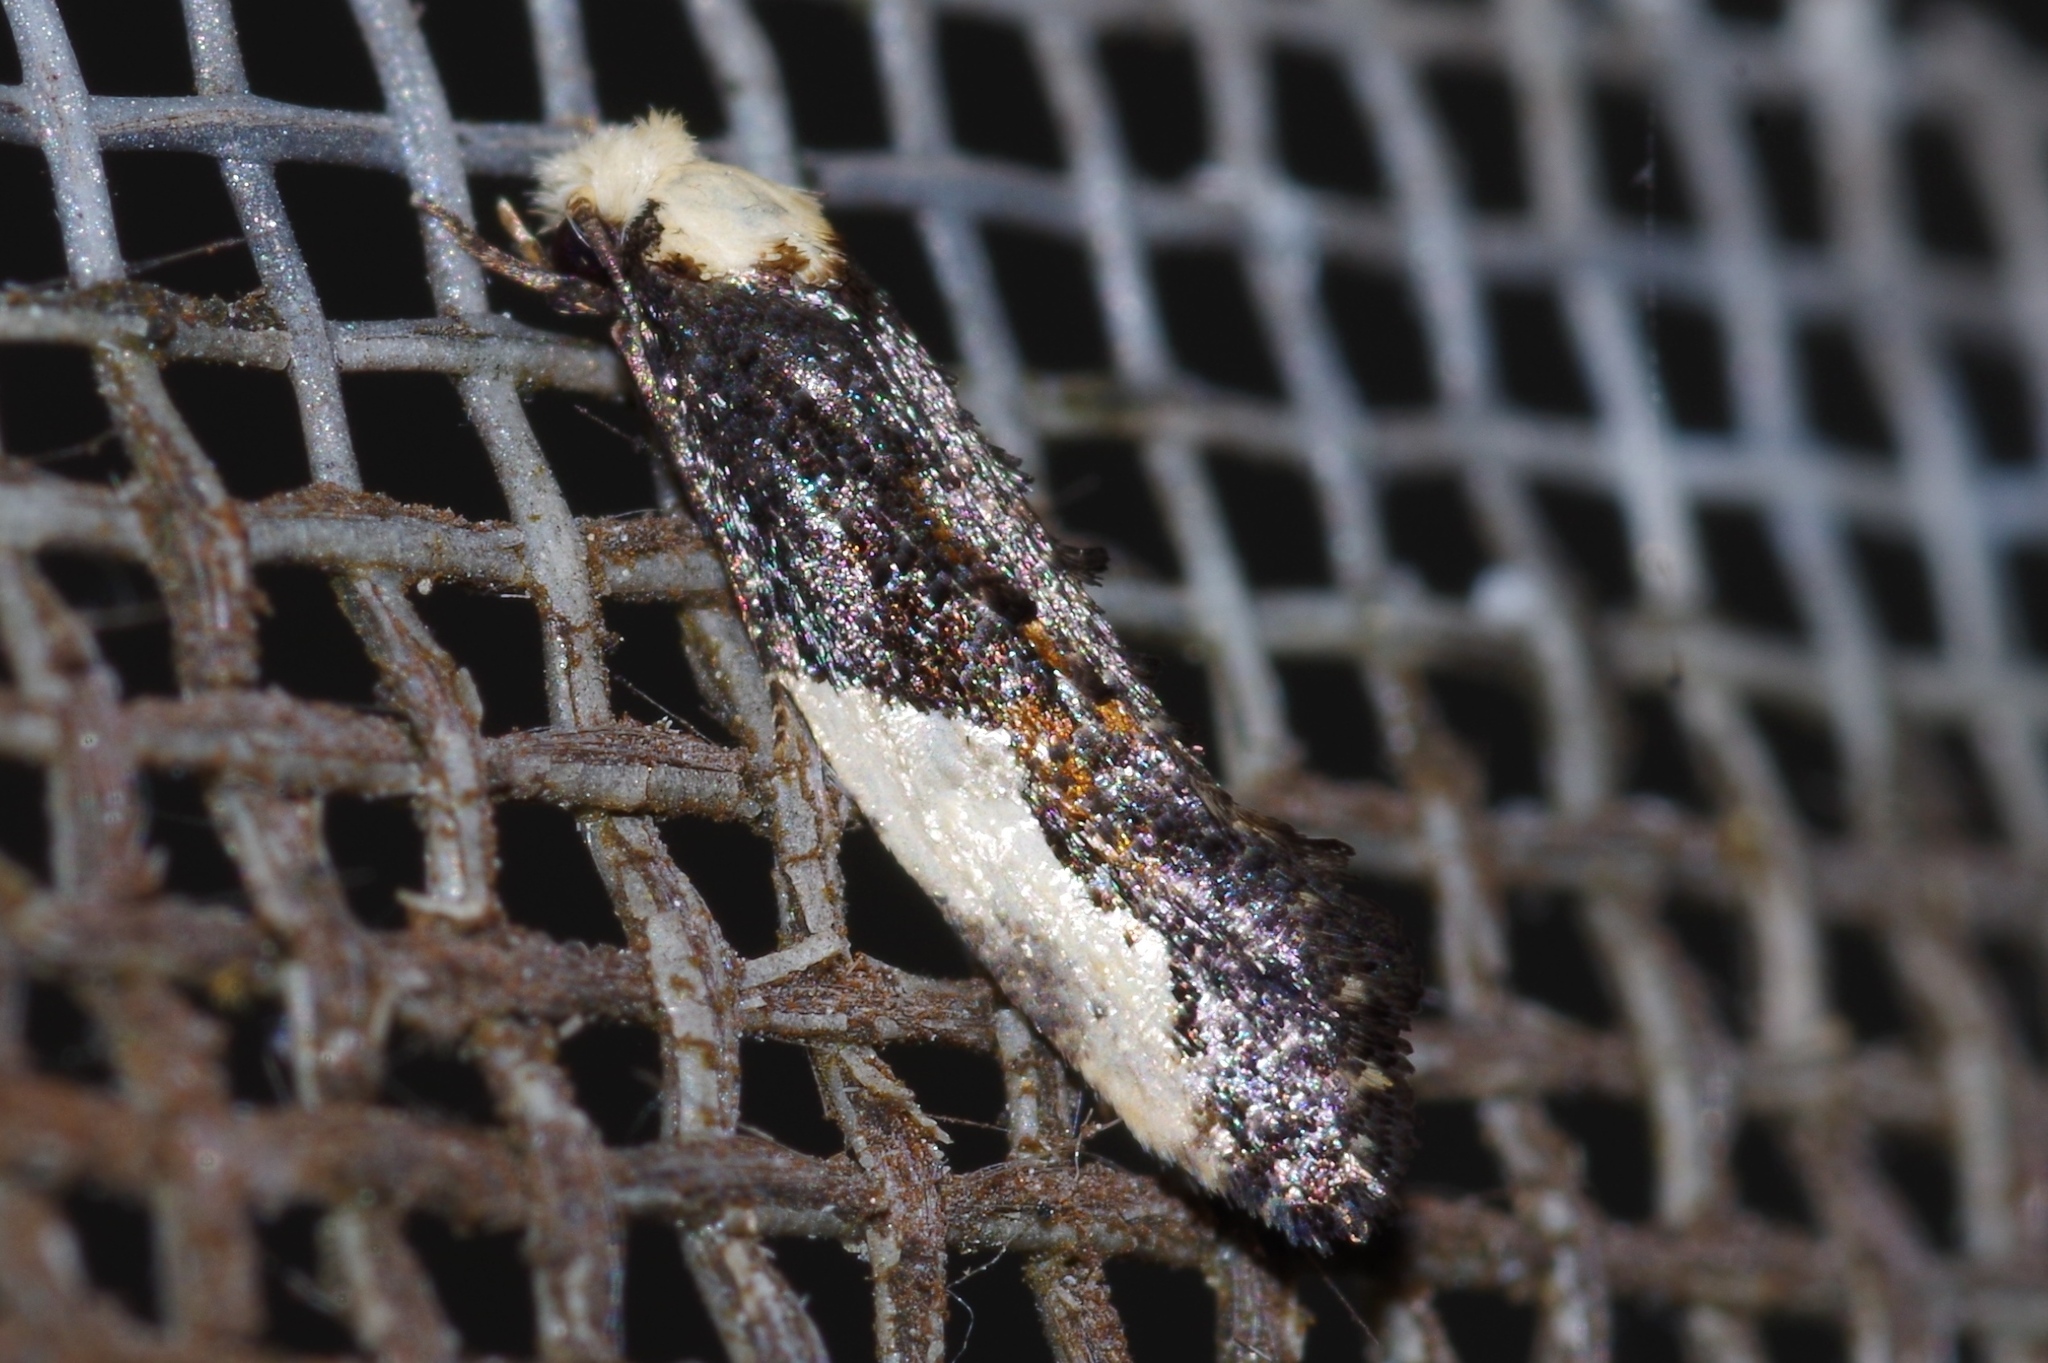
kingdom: Animalia
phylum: Arthropoda
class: Insecta
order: Lepidoptera
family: Tineidae
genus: Monopis
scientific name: Monopis longella
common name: Pavlovski's monopis moth
